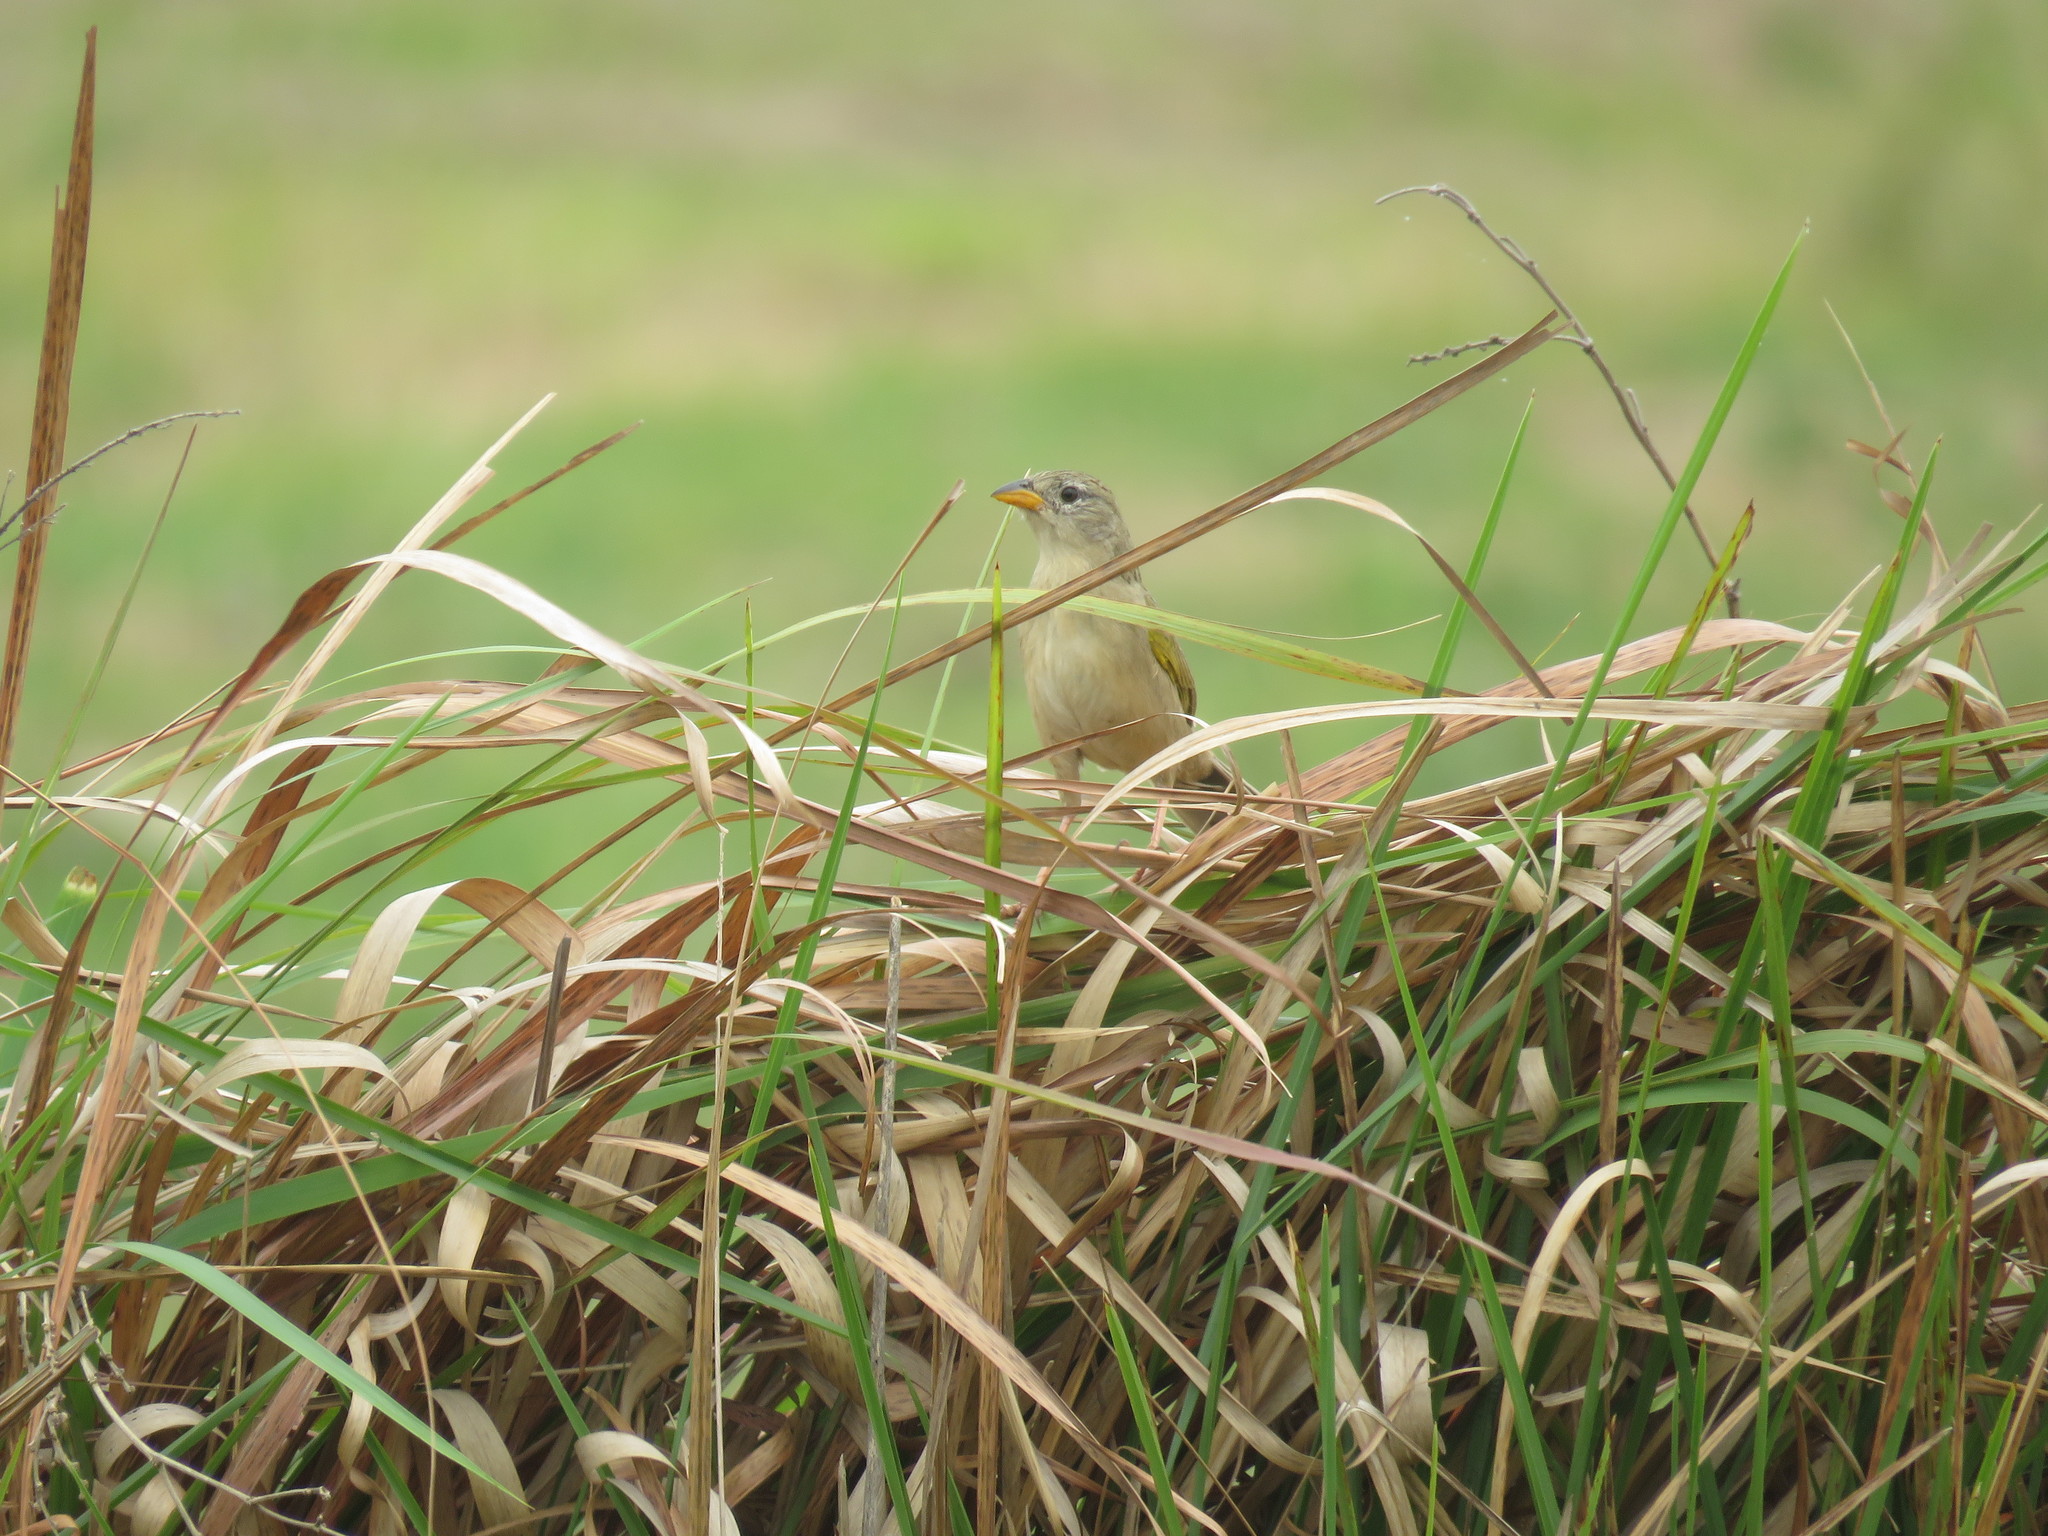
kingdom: Animalia
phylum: Chordata
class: Aves
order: Passeriformes
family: Thraupidae
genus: Emberizoides
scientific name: Emberizoides herbicola
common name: Wedge-tailed grass-finch
